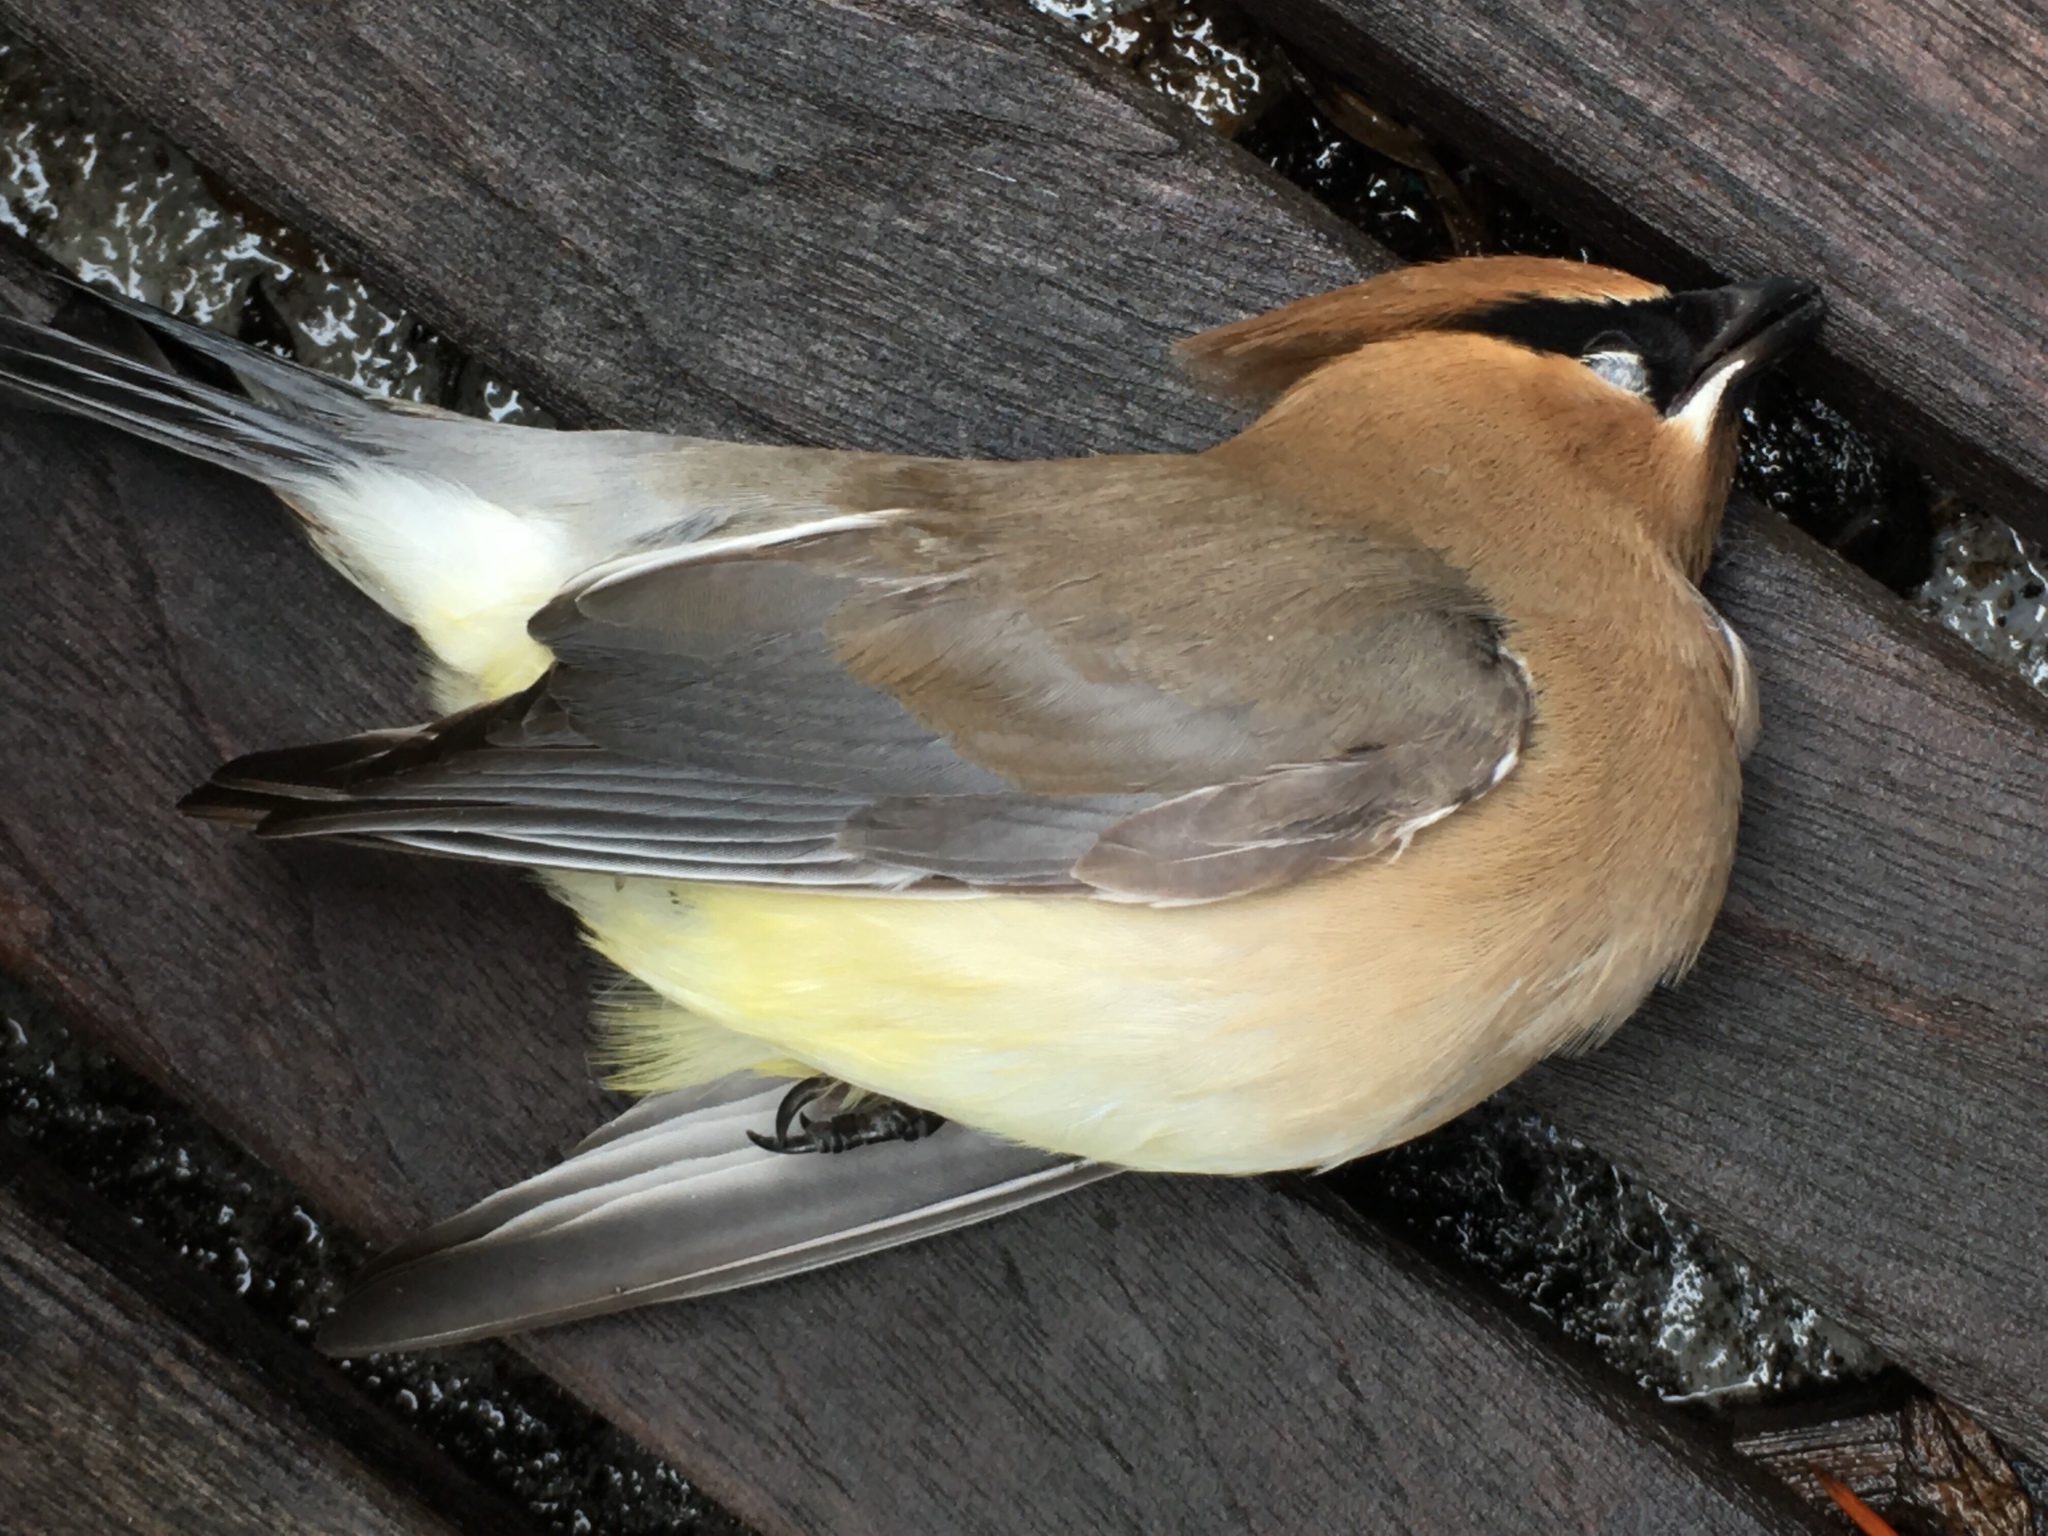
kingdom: Animalia
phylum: Chordata
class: Aves
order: Passeriformes
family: Bombycillidae
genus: Bombycilla
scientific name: Bombycilla cedrorum
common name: Cedar waxwing
